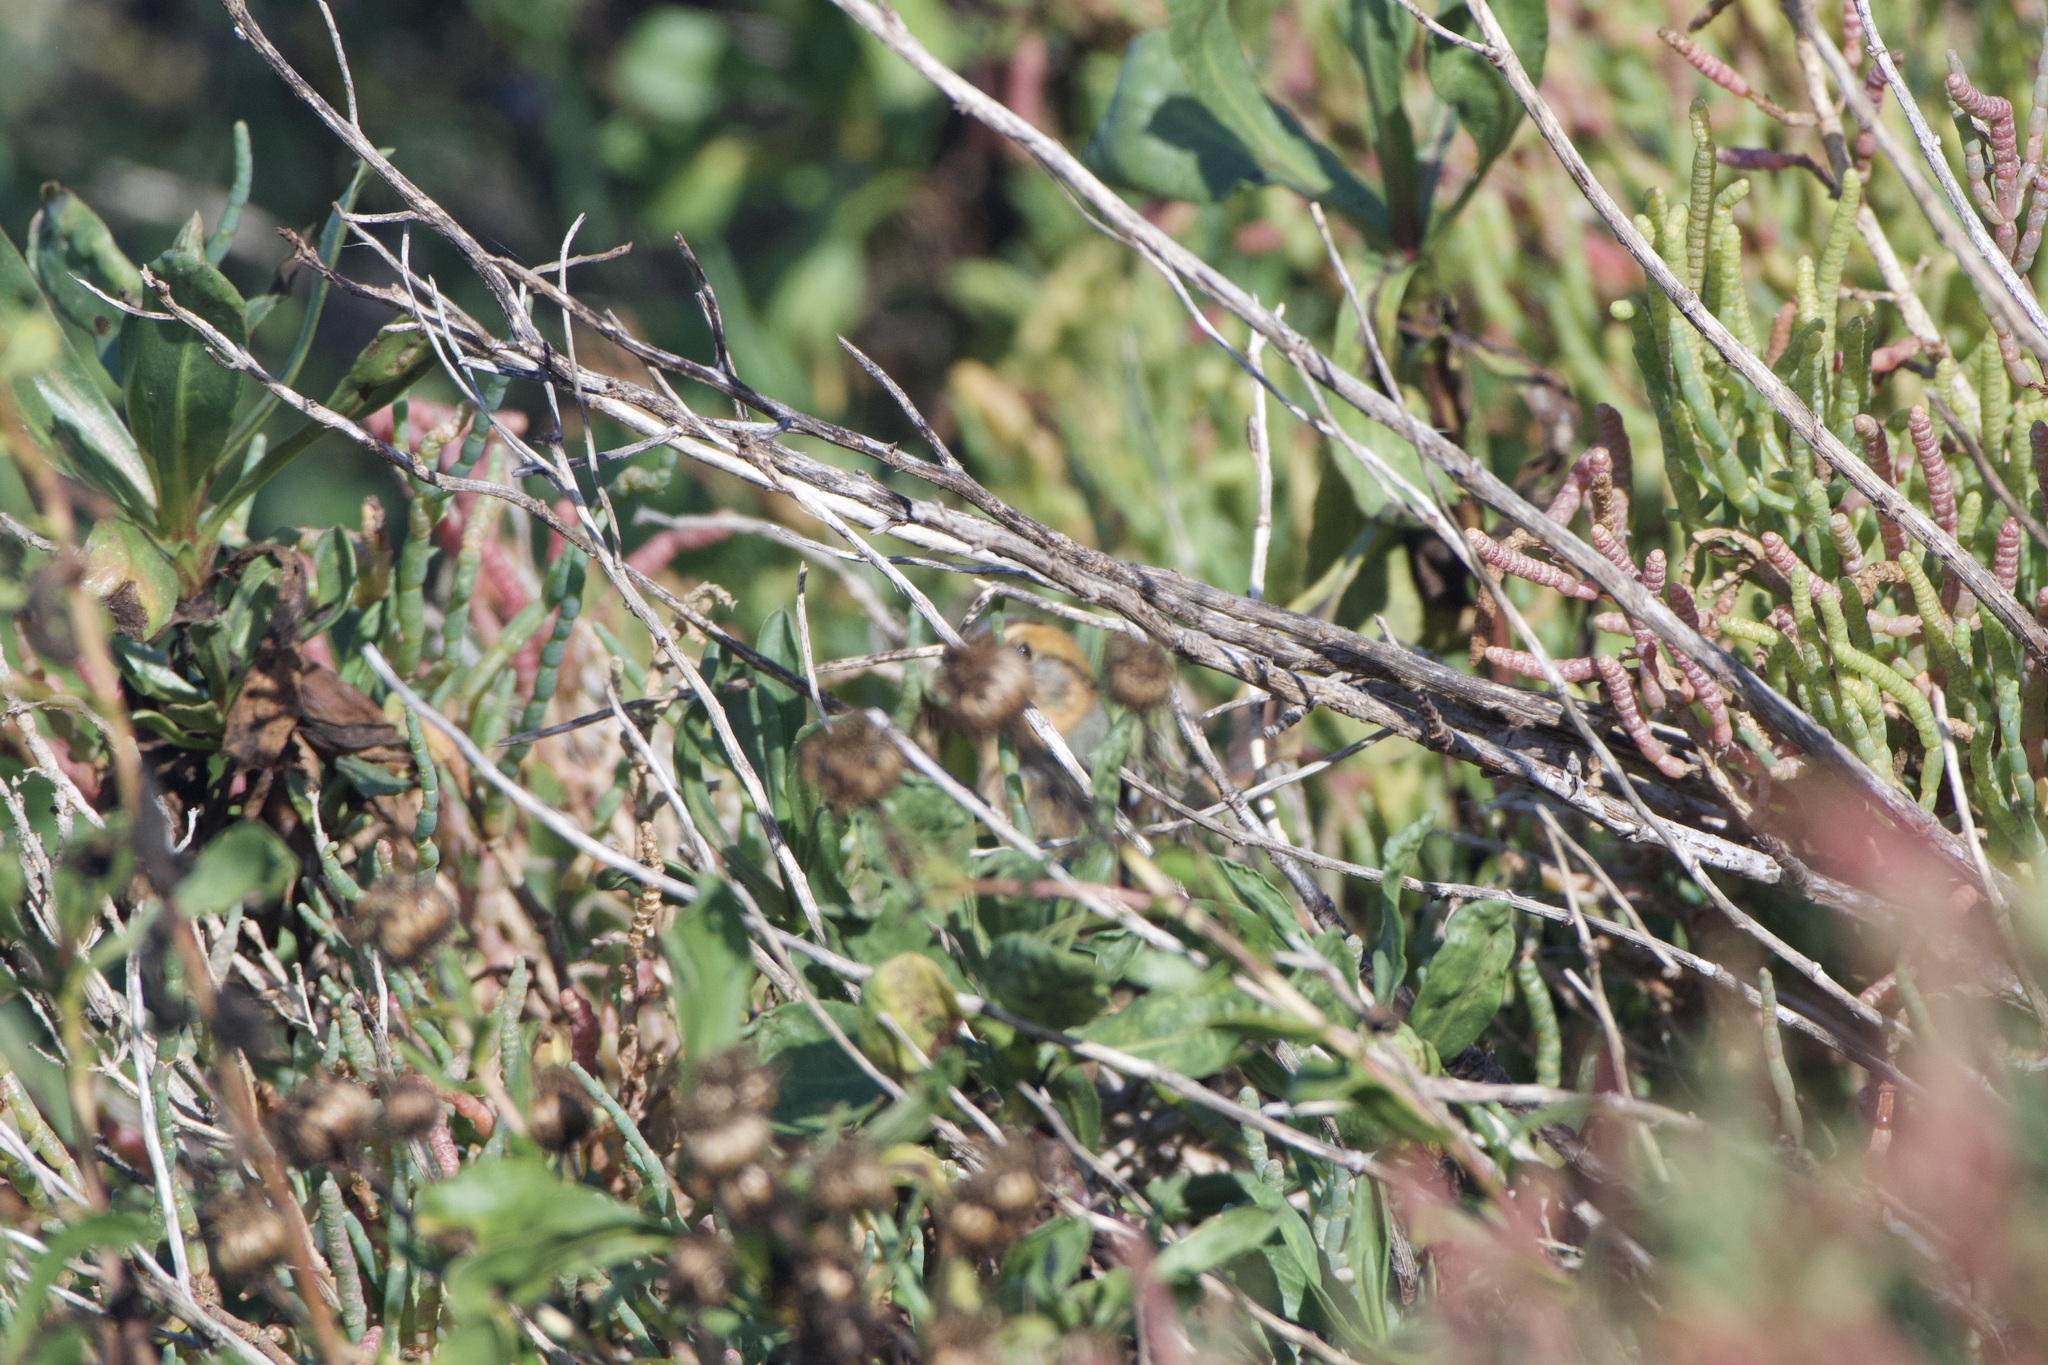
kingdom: Animalia
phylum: Chordata
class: Aves
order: Passeriformes
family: Passerellidae
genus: Ammospiza
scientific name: Ammospiza nelsoni
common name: Nelson's sparrow
